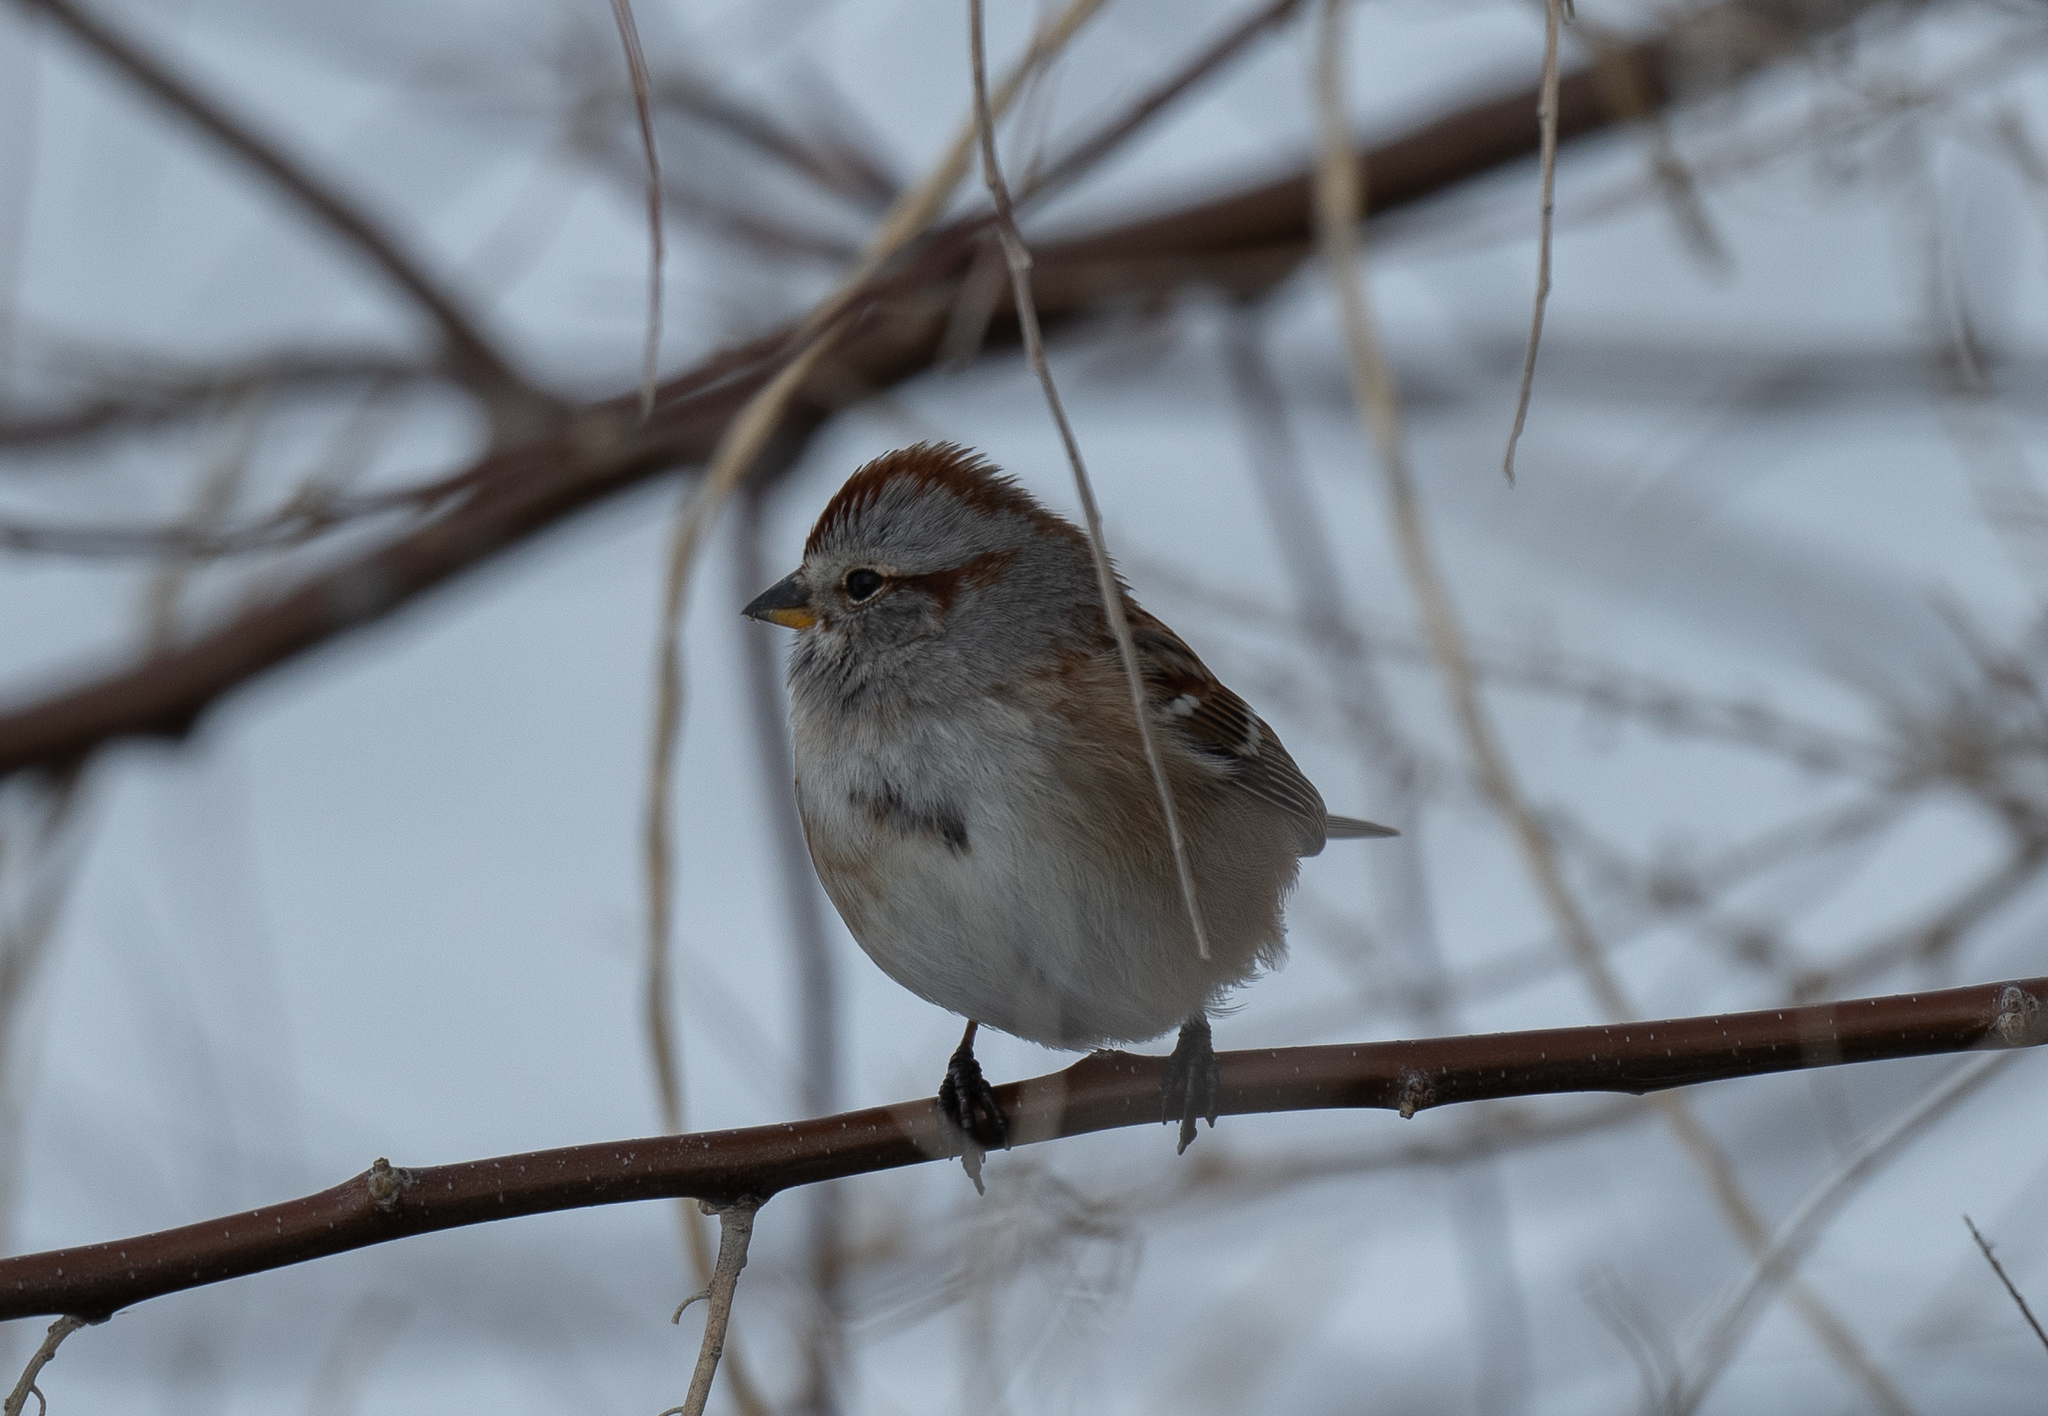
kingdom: Animalia
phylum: Chordata
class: Aves
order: Passeriformes
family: Passerellidae
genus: Spizelloides
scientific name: Spizelloides arborea
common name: American tree sparrow
